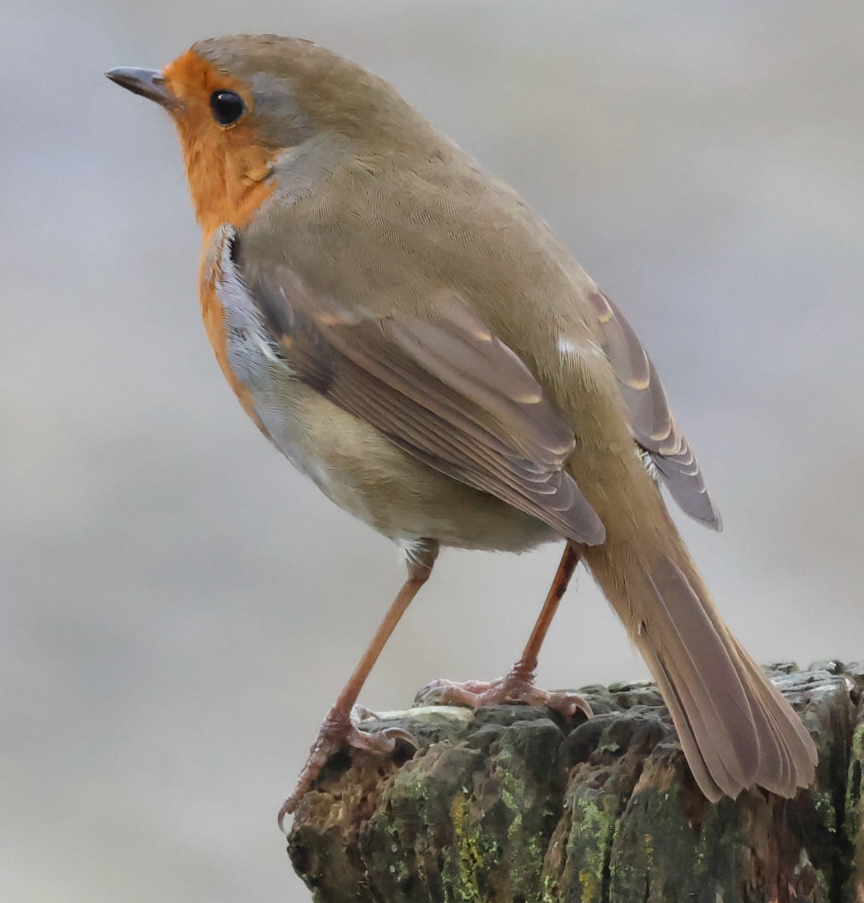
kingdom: Animalia
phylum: Chordata
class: Aves
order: Passeriformes
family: Muscicapidae
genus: Erithacus
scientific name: Erithacus rubecula
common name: European robin
